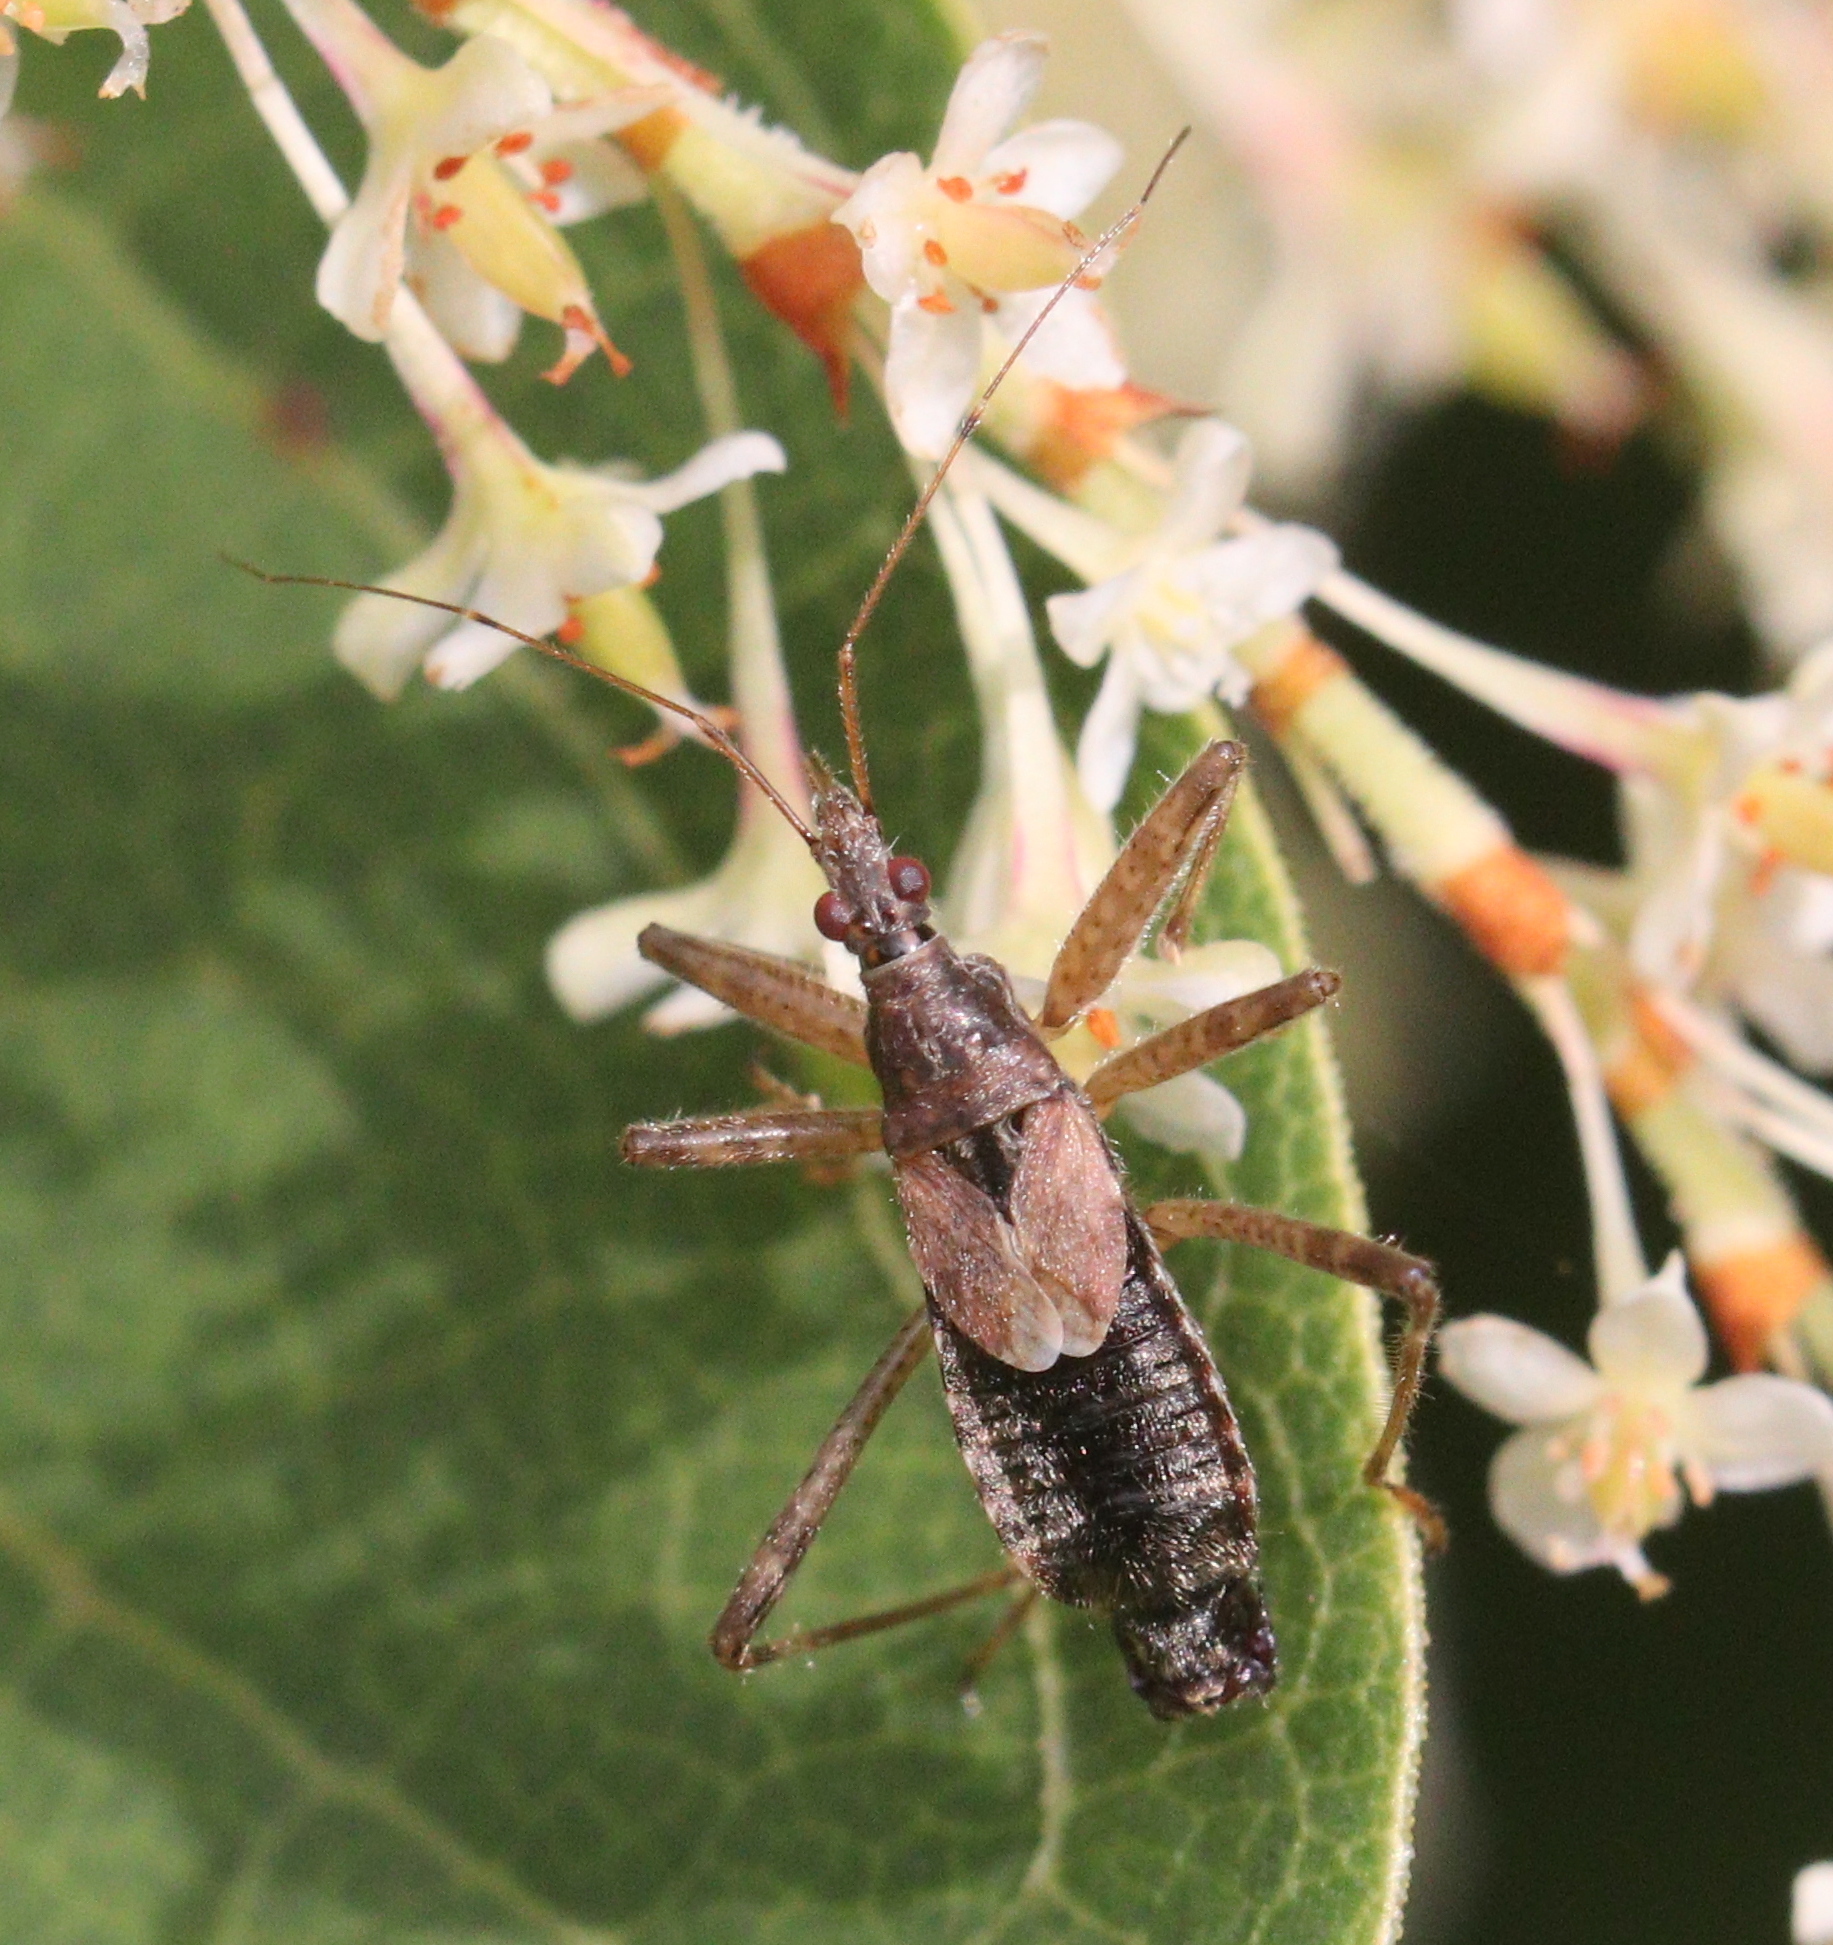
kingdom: Animalia
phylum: Arthropoda
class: Insecta
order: Hemiptera
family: Nabidae
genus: Himacerus
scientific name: Himacerus apterus
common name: Tree damsel bug
